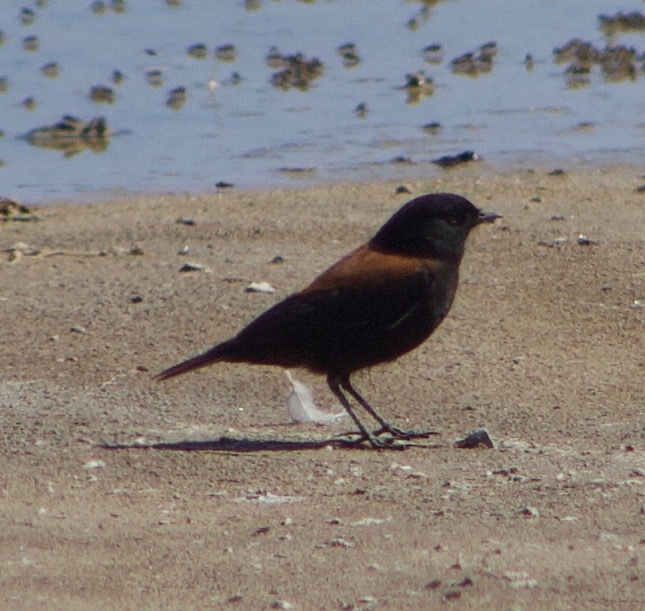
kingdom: Animalia
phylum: Chordata
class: Aves
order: Passeriformes
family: Tyrannidae
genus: Lessonia
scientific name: Lessonia rufa
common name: Austral negrito
